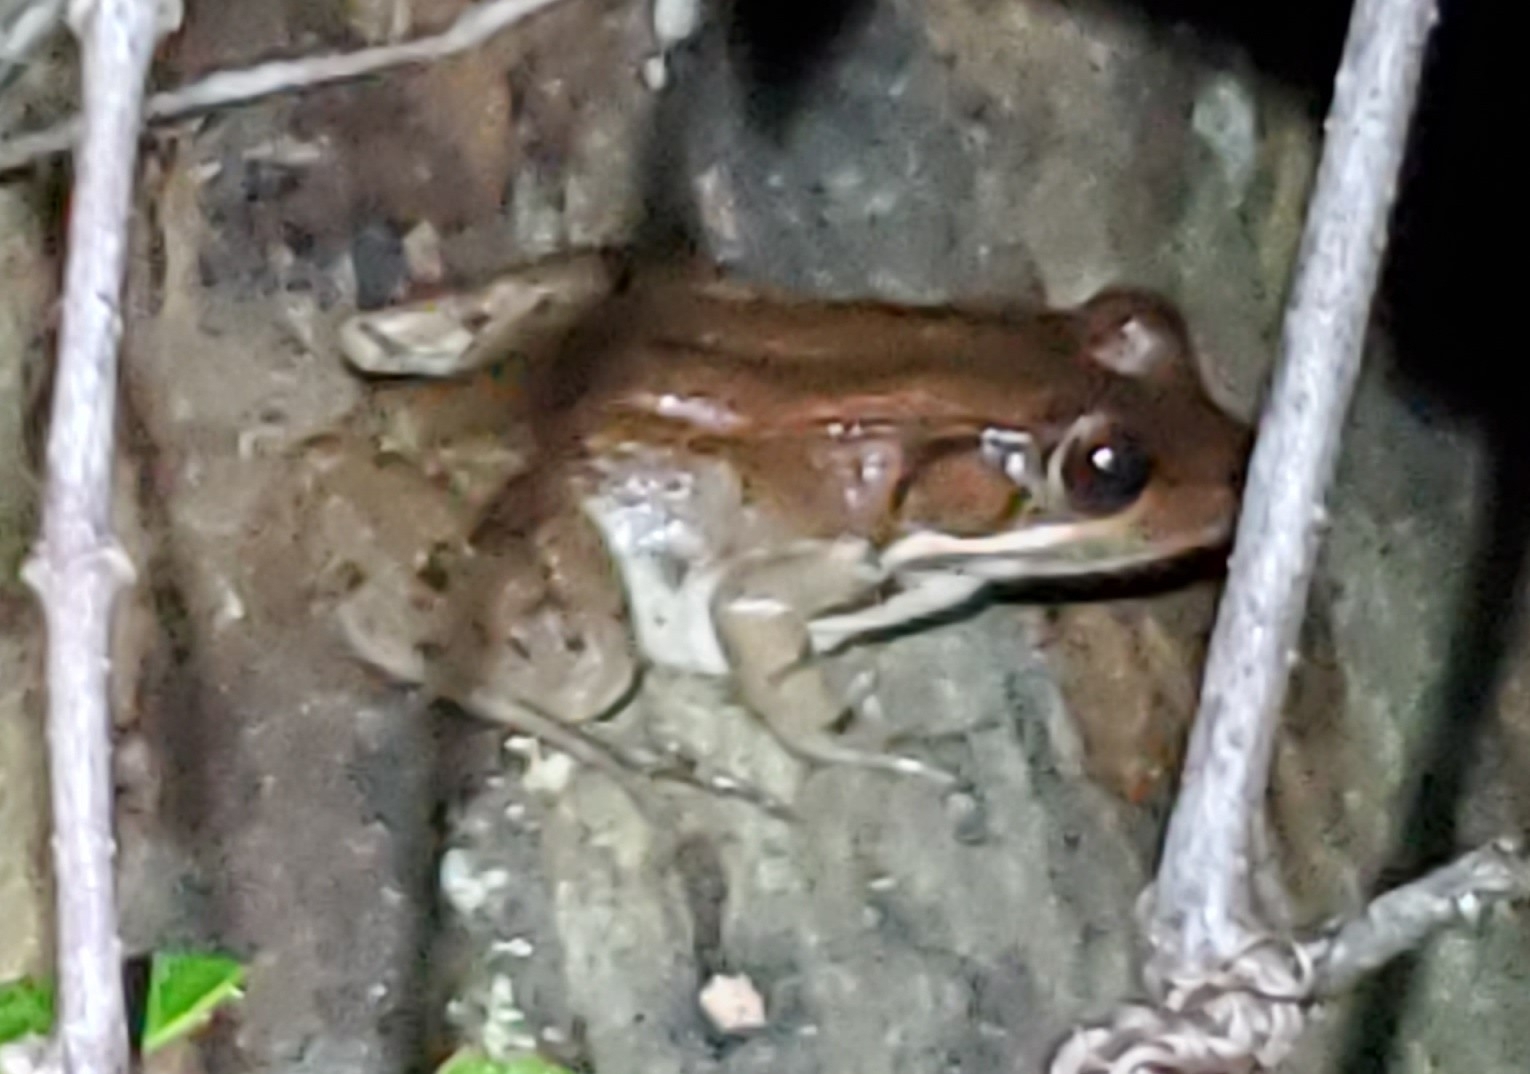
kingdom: Animalia
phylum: Chordata
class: Amphibia
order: Anura
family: Ranidae
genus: Lithobates
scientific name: Lithobates clamitans
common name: Green frog
